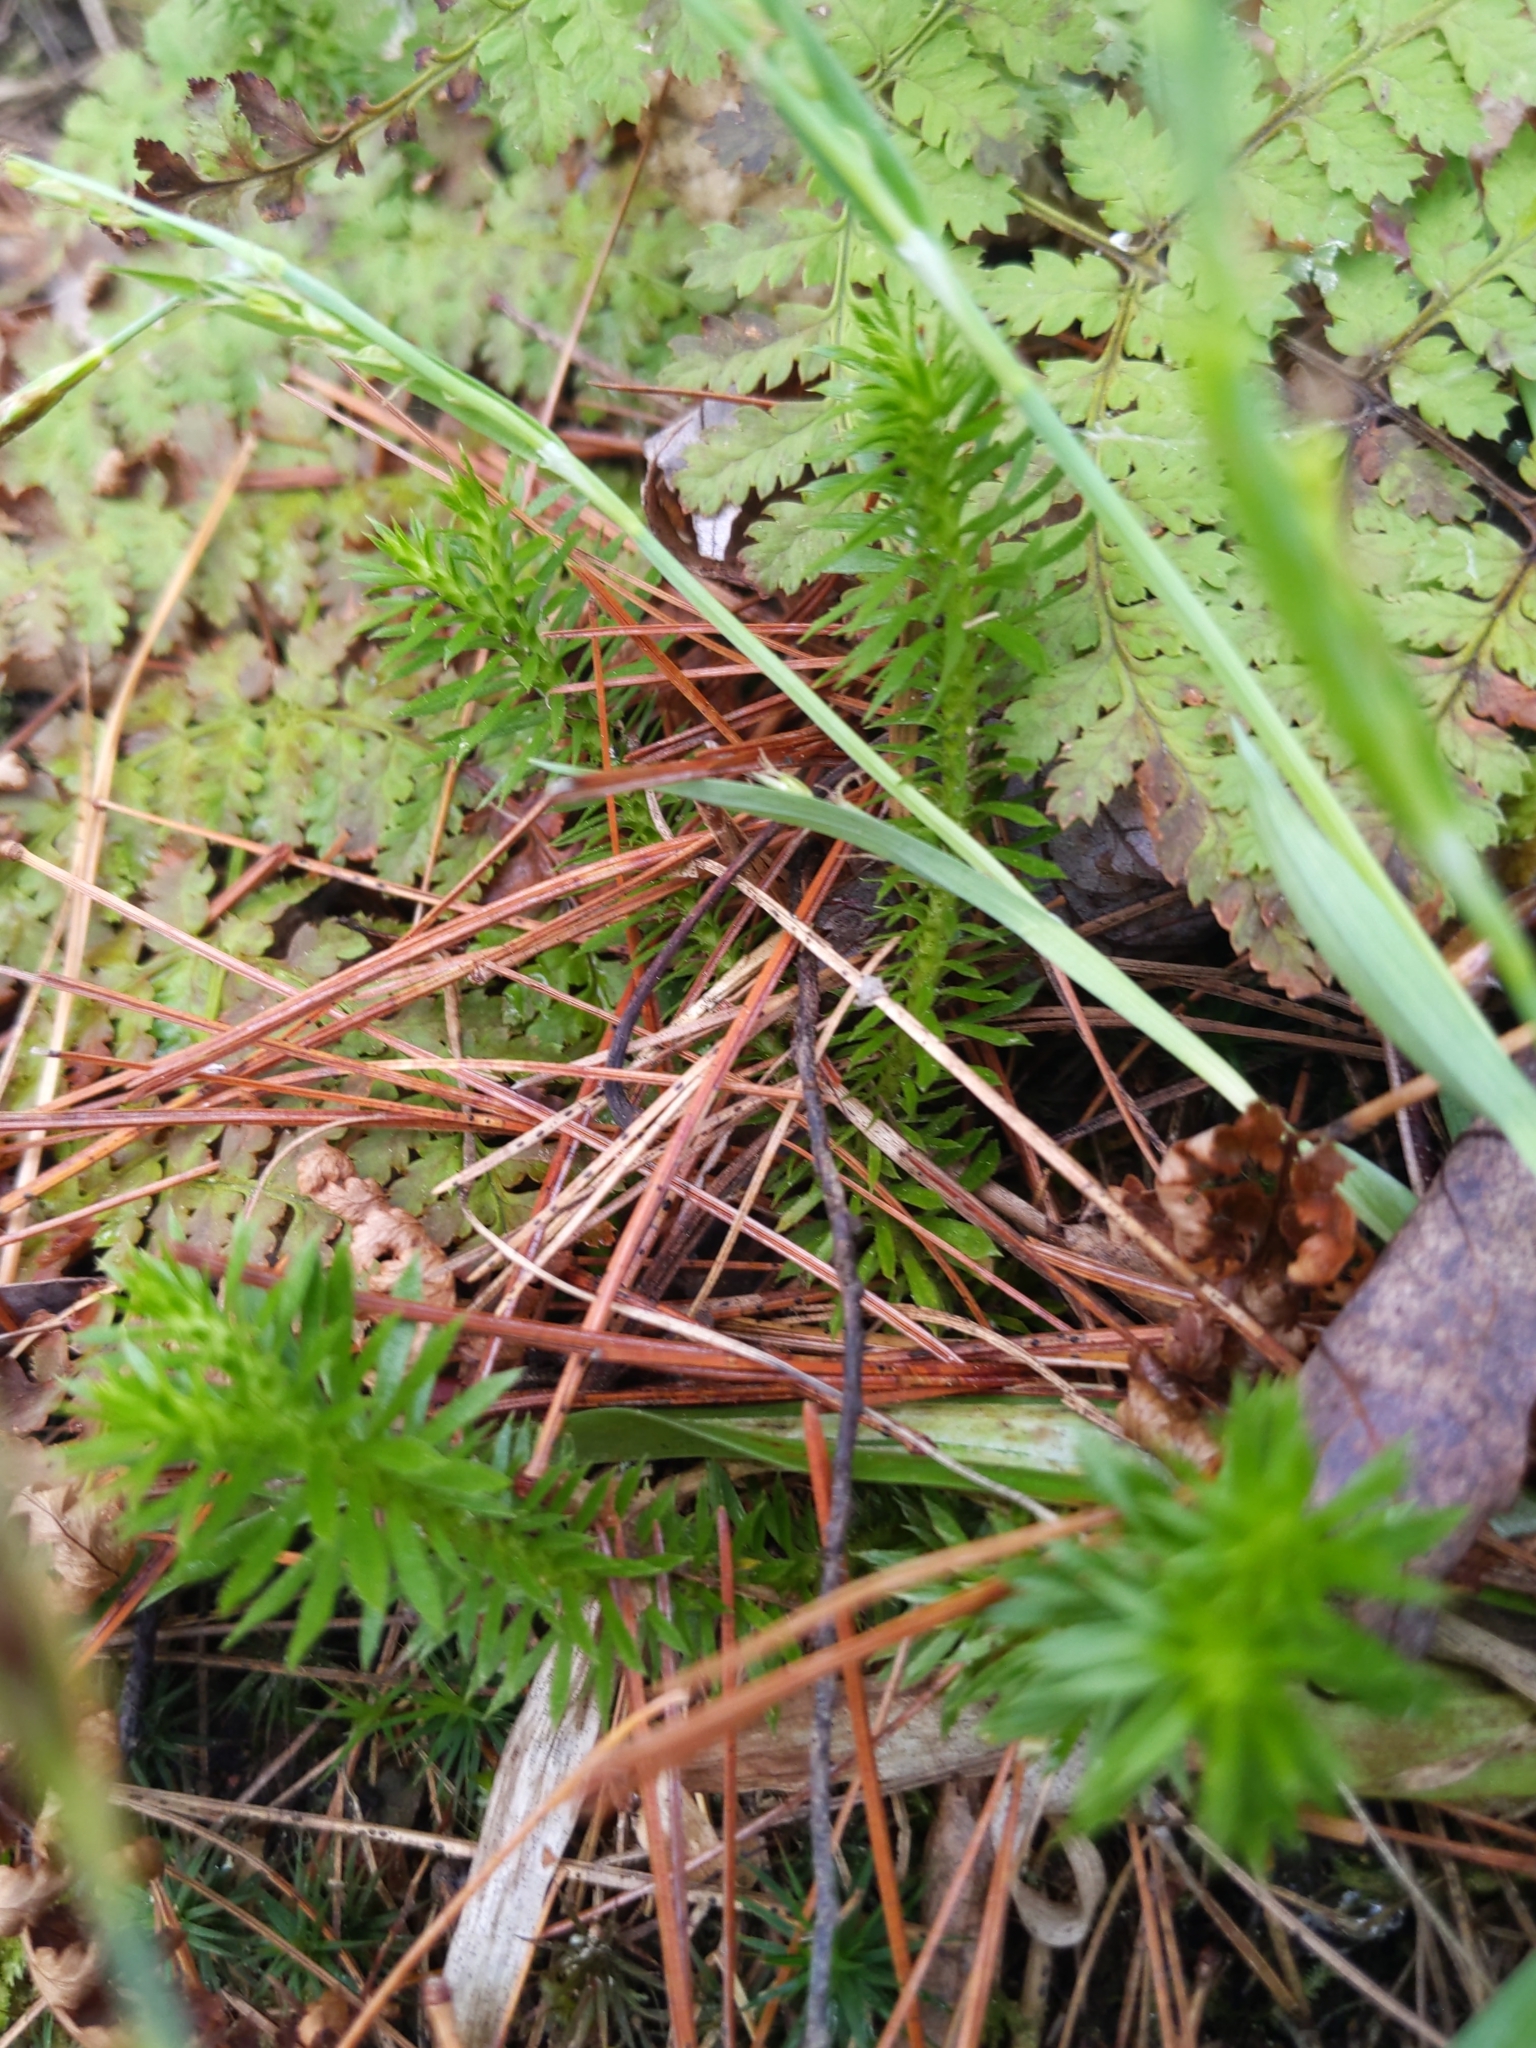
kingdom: Plantae
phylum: Tracheophyta
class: Lycopodiopsida
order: Lycopodiales
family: Lycopodiaceae
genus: Huperzia
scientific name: Huperzia lucidula
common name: Shining clubmoss
